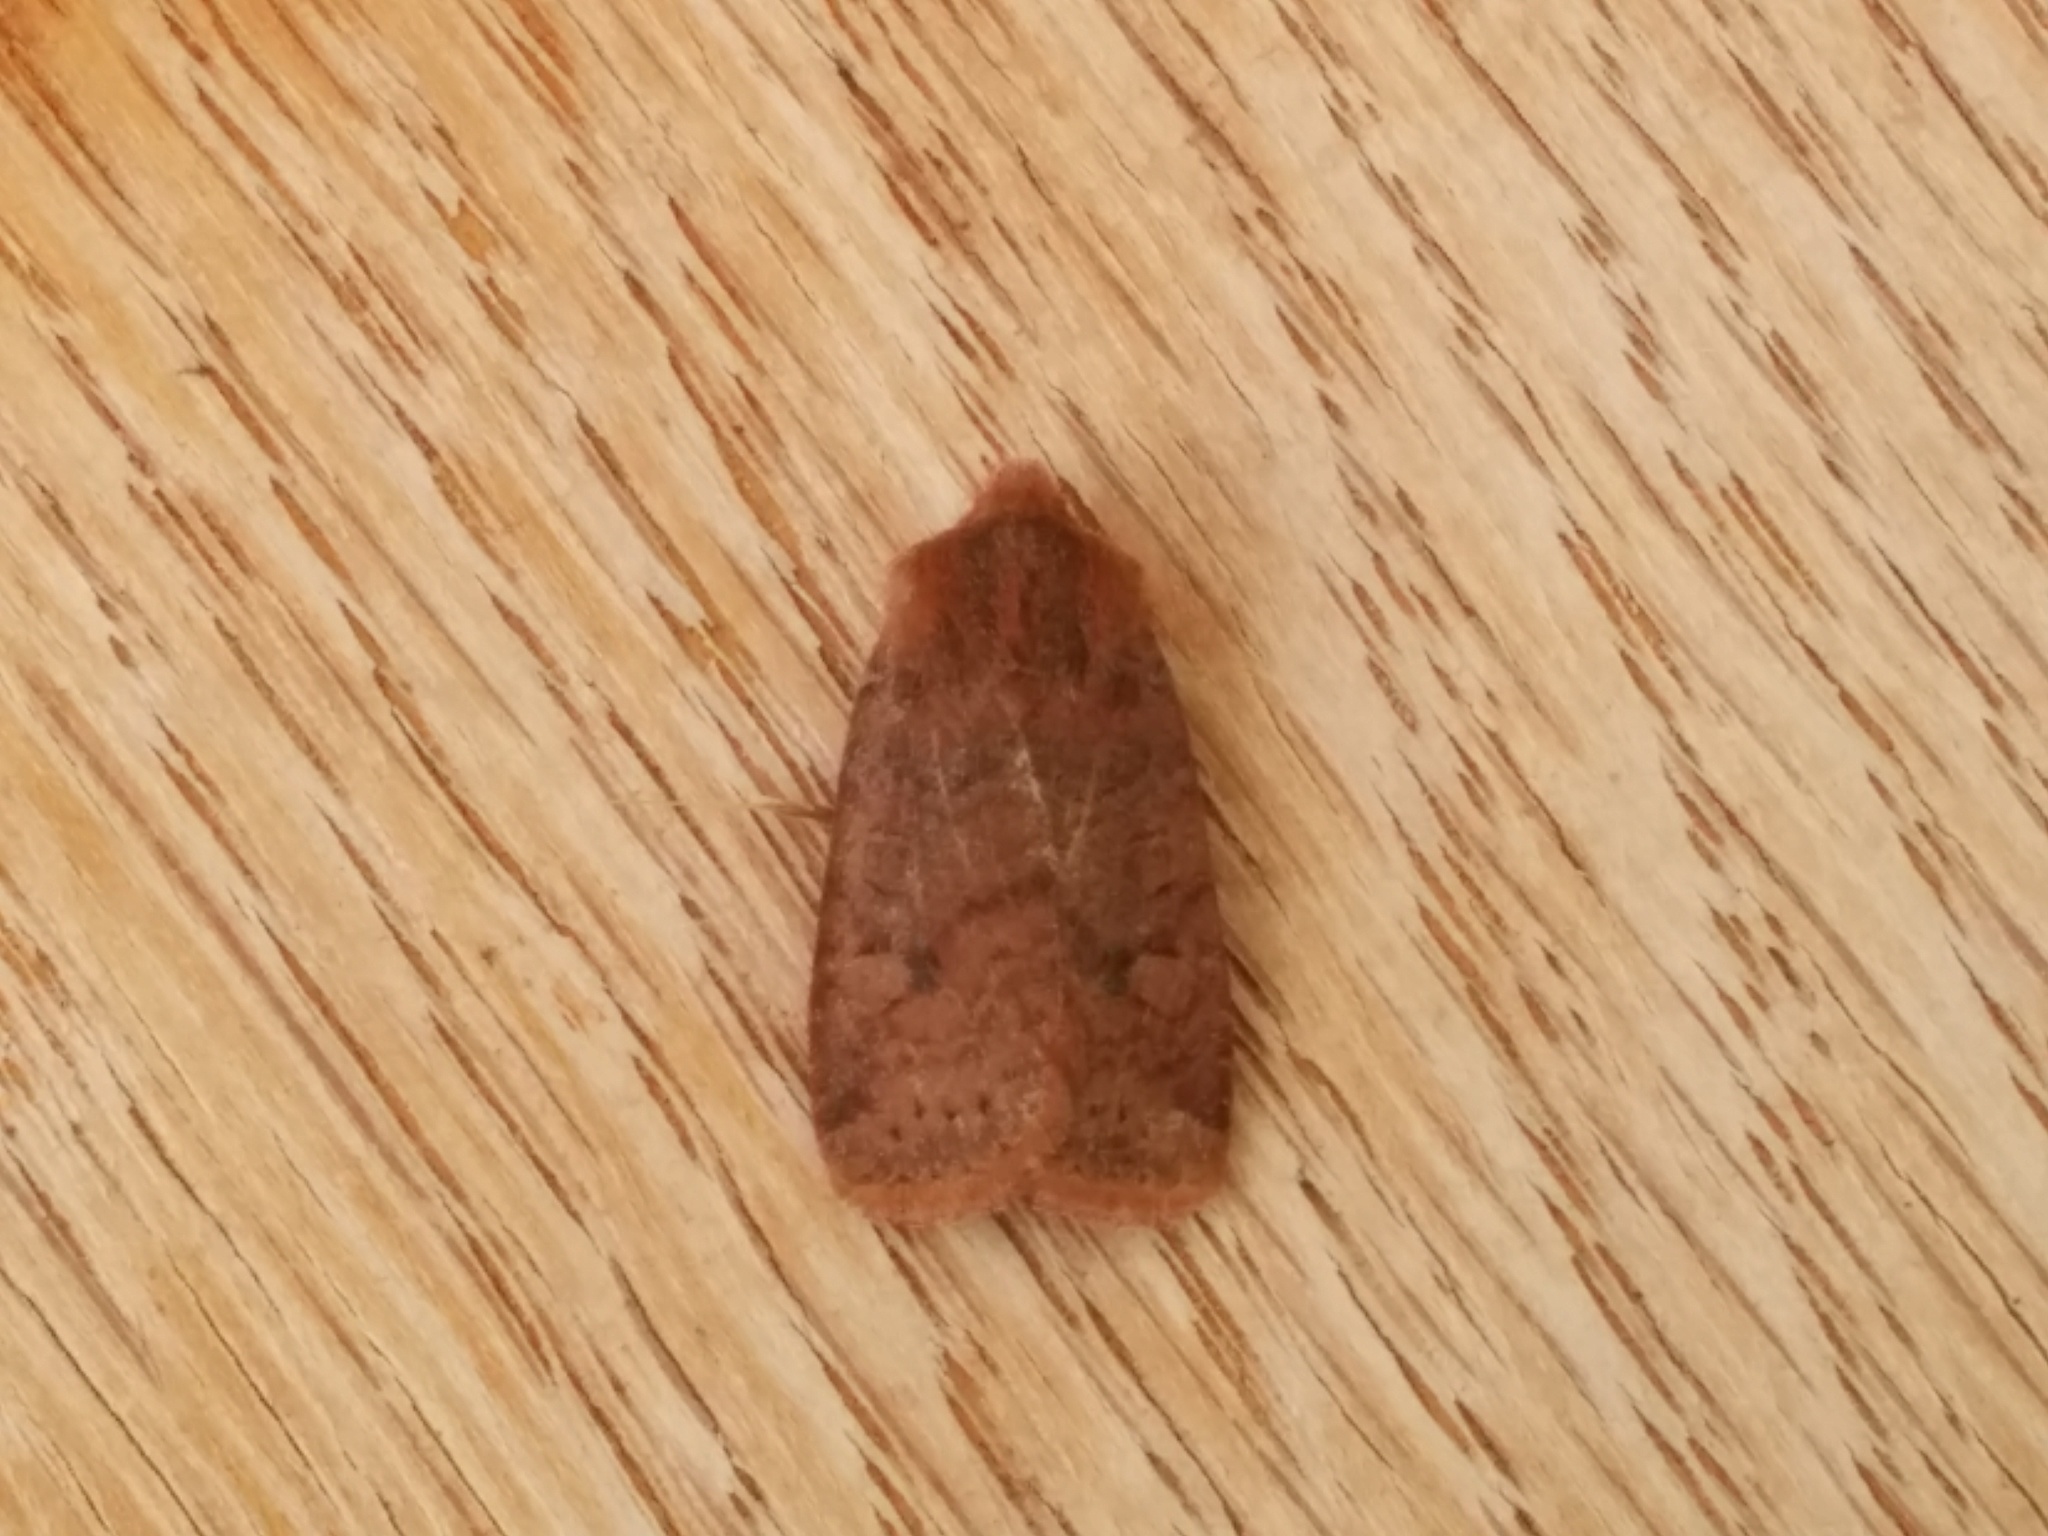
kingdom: Animalia
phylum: Arthropoda
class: Insecta
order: Lepidoptera
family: Noctuidae
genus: Conistra
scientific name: Conistra vaccinii
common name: Chestnut
